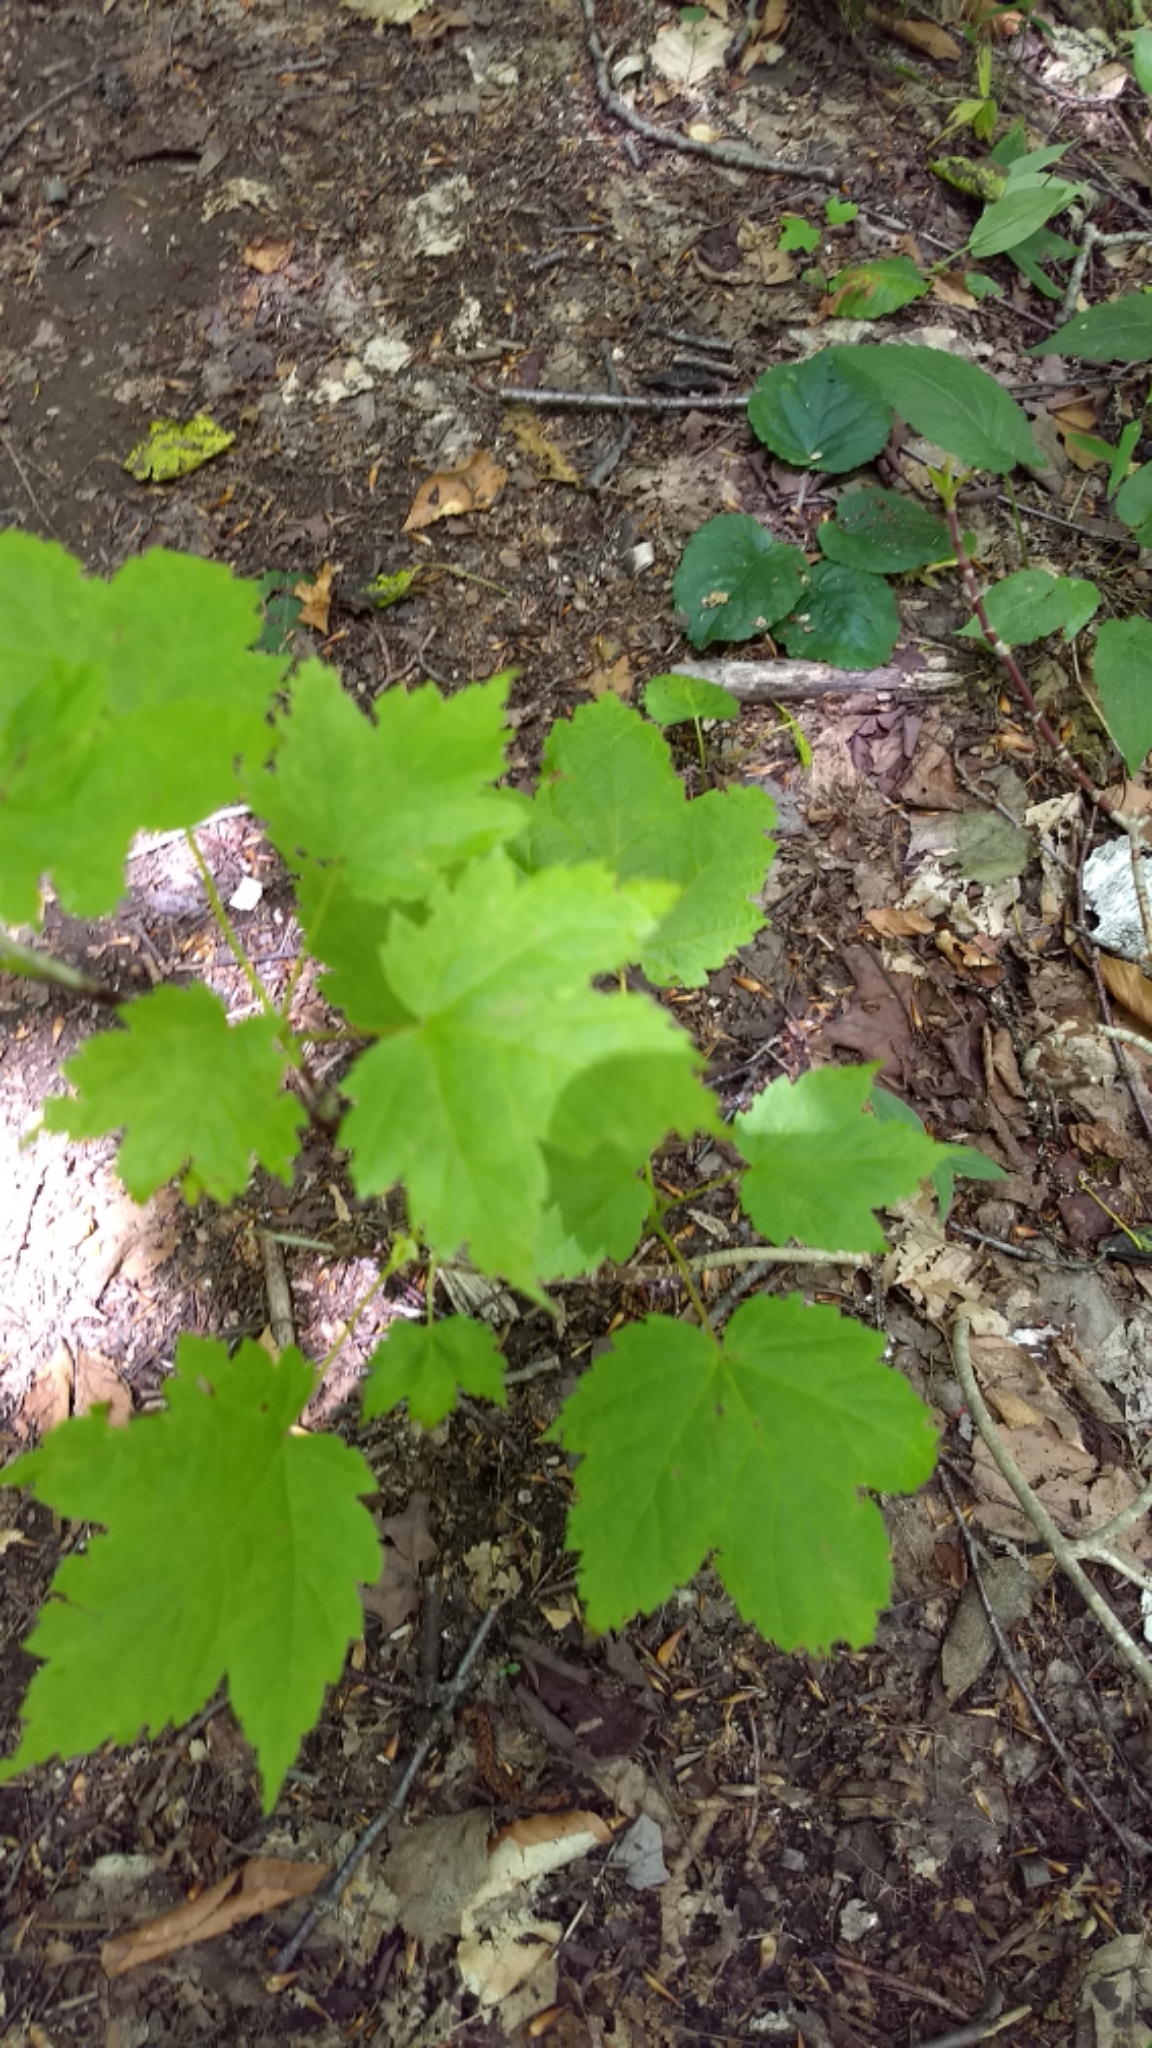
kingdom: Plantae
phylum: Tracheophyta
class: Magnoliopsida
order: Sapindales
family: Sapindaceae
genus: Acer
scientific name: Acer spicatum
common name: Mountain maple
